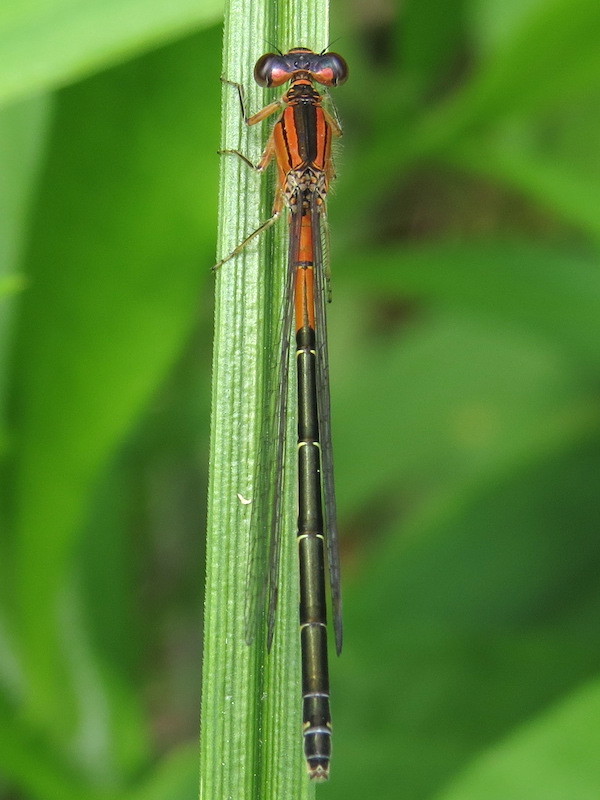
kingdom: Animalia
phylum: Arthropoda
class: Insecta
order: Odonata
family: Coenagrionidae
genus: Ischnura
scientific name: Ischnura verticalis
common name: Eastern forktail
